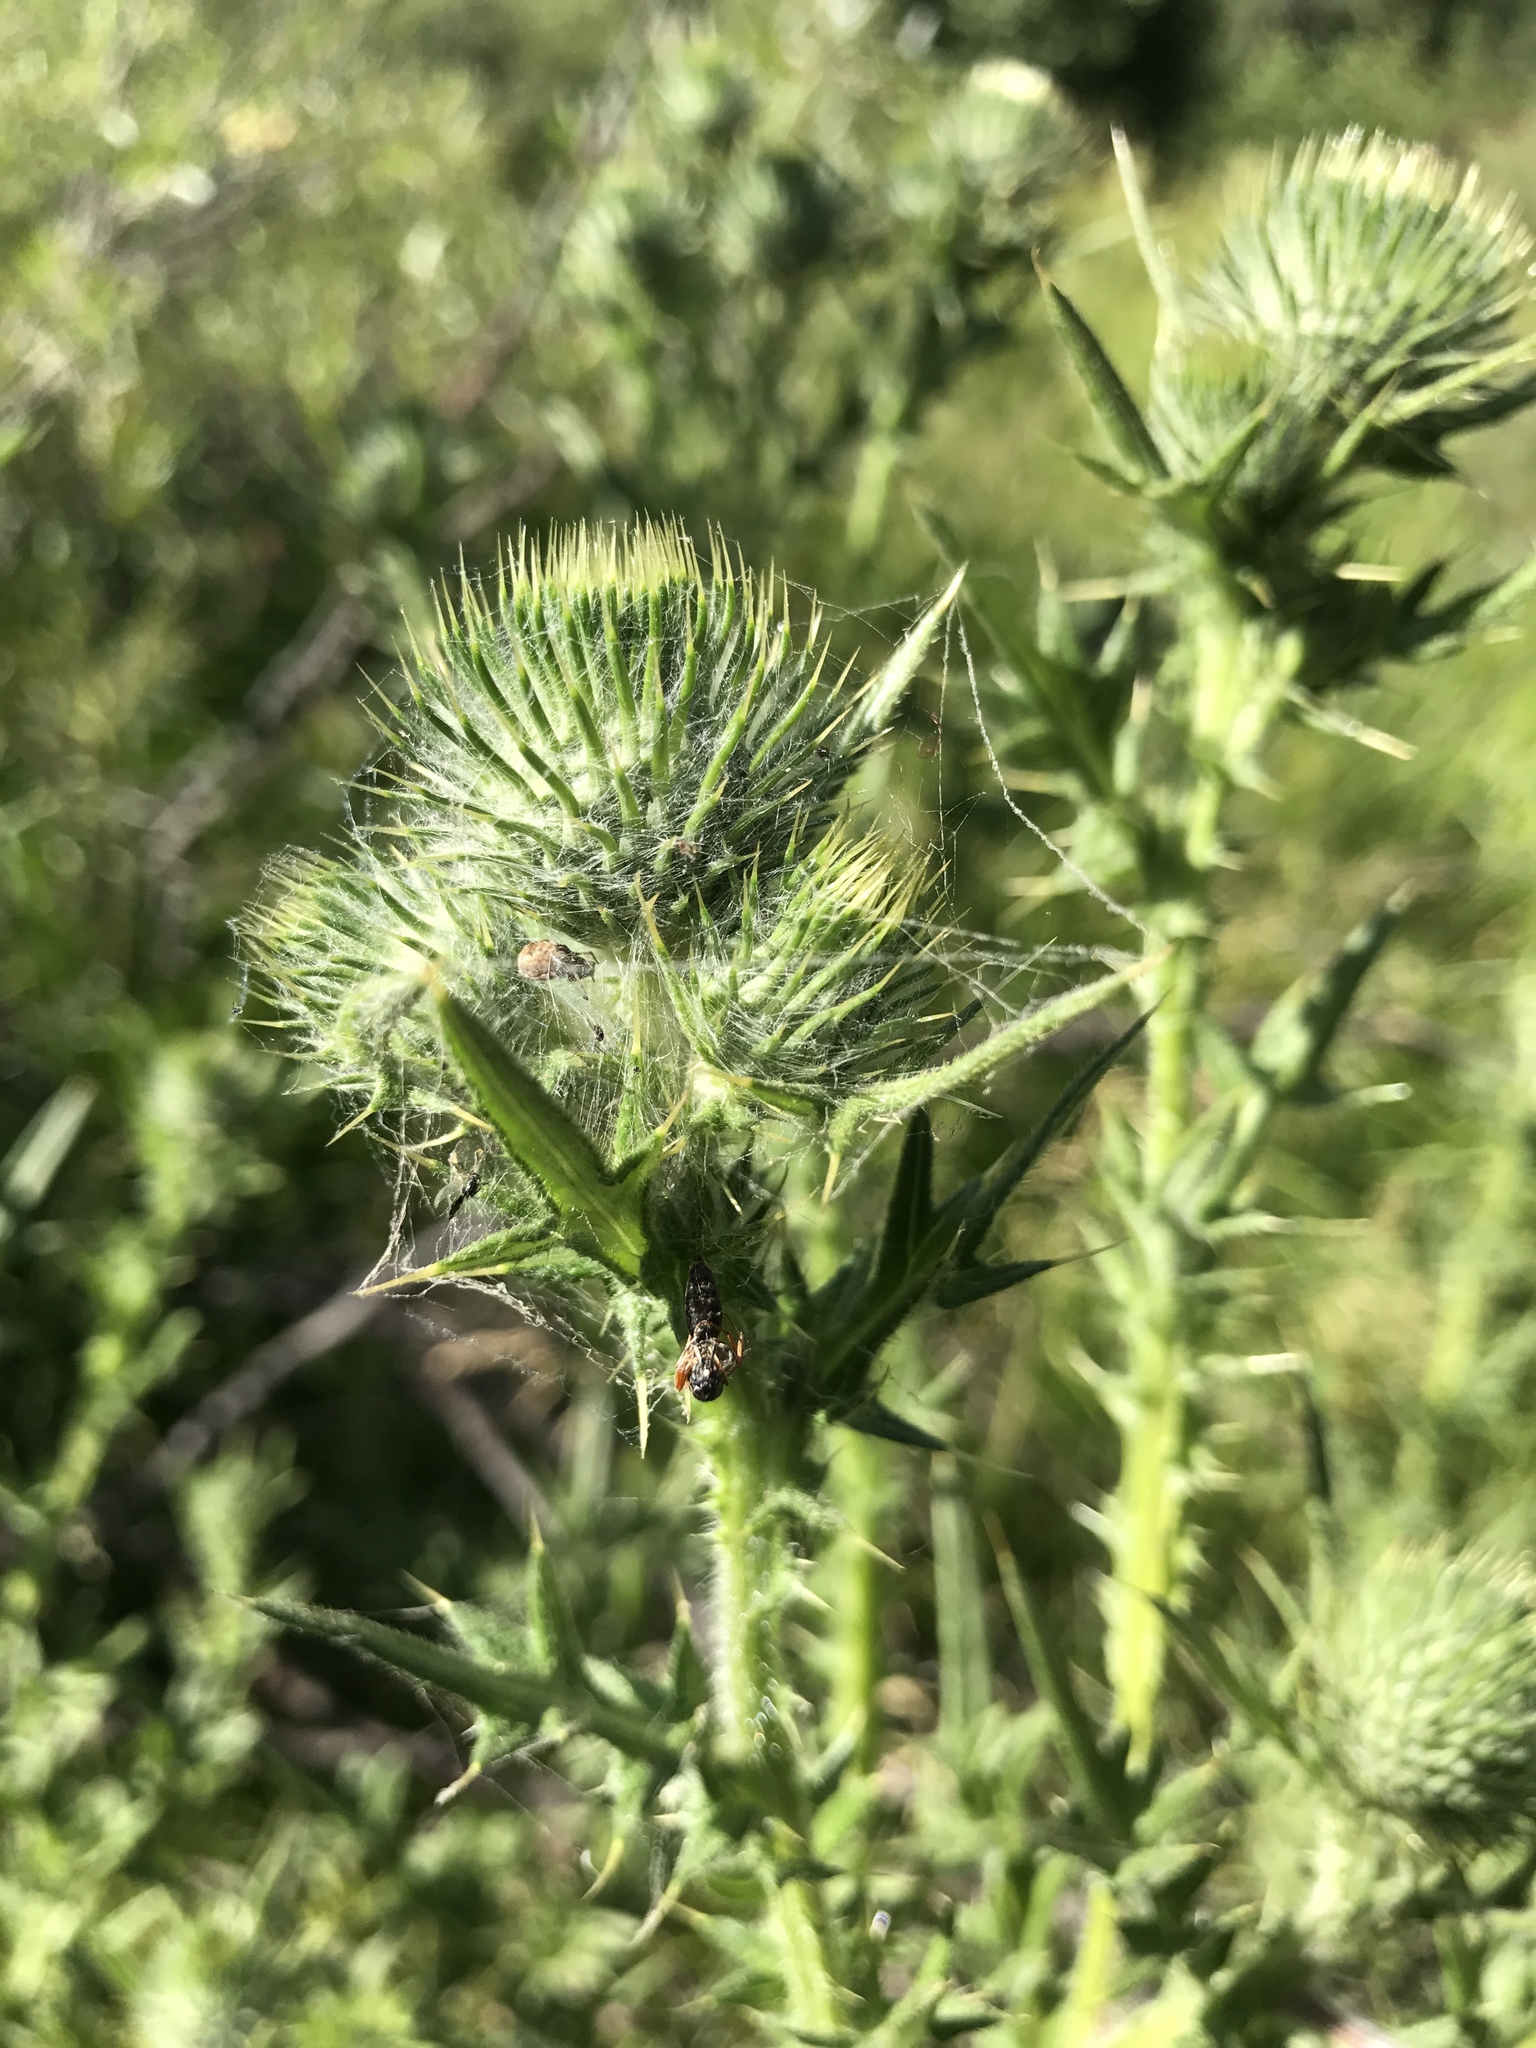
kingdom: Plantae
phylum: Tracheophyta
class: Magnoliopsida
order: Asterales
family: Asteraceae
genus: Cirsium
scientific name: Cirsium vulgare
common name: Bull thistle
